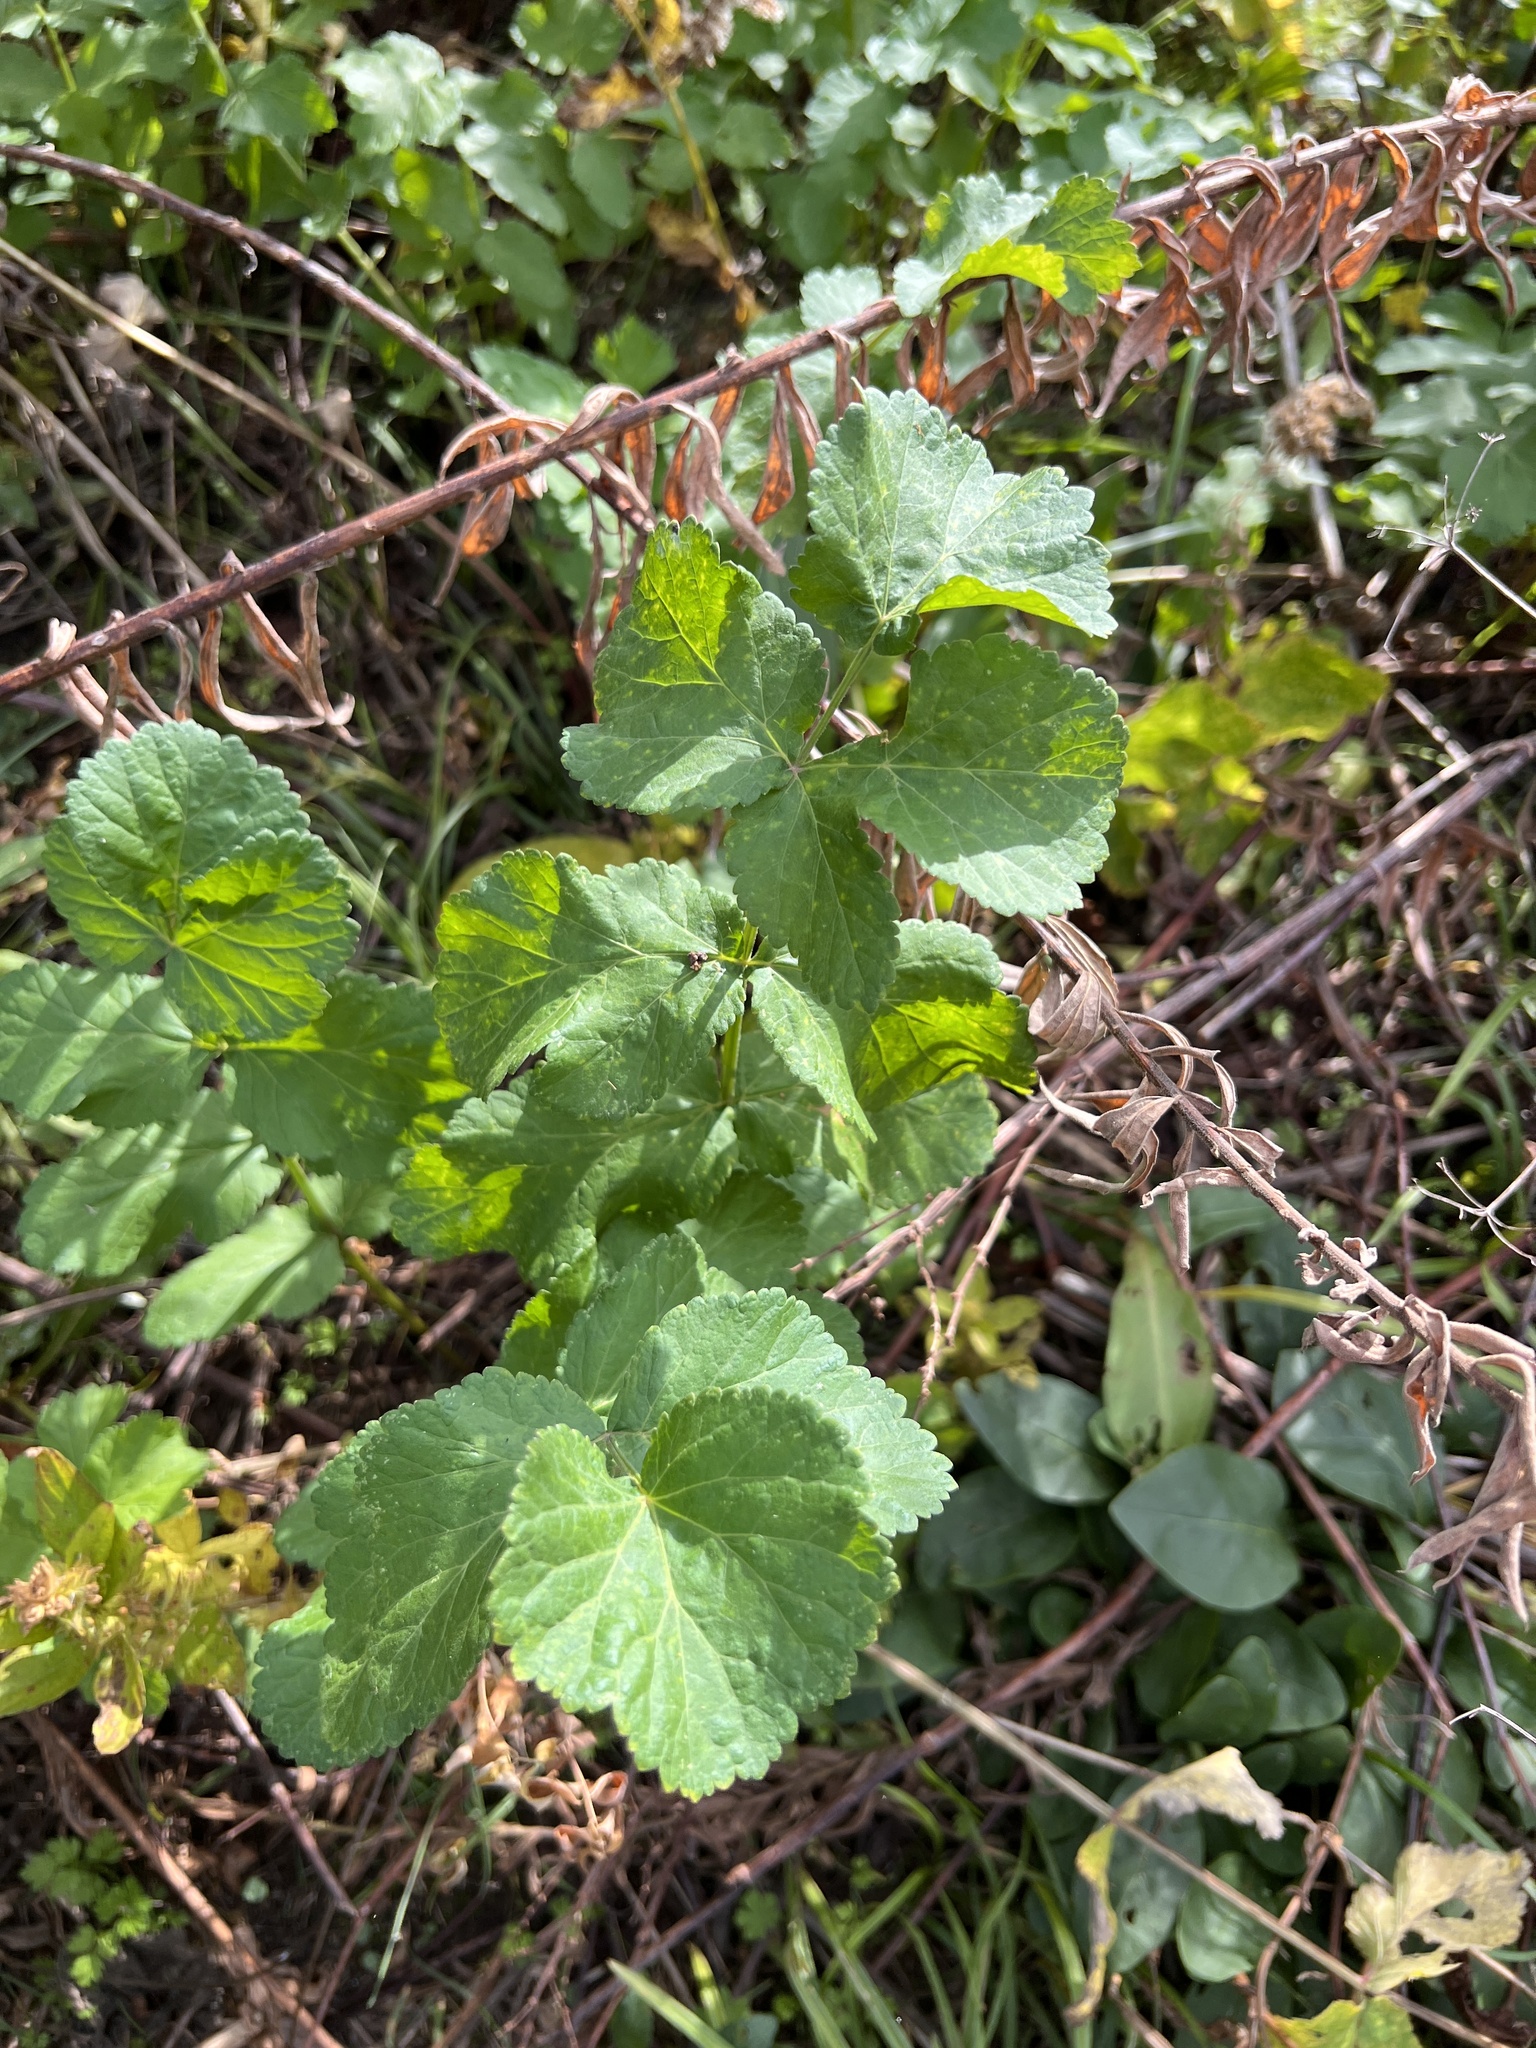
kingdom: Plantae
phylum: Tracheophyta
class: Magnoliopsida
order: Apiales
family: Apiaceae
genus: Pastinaca
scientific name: Pastinaca sativa
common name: Wild parsnip
